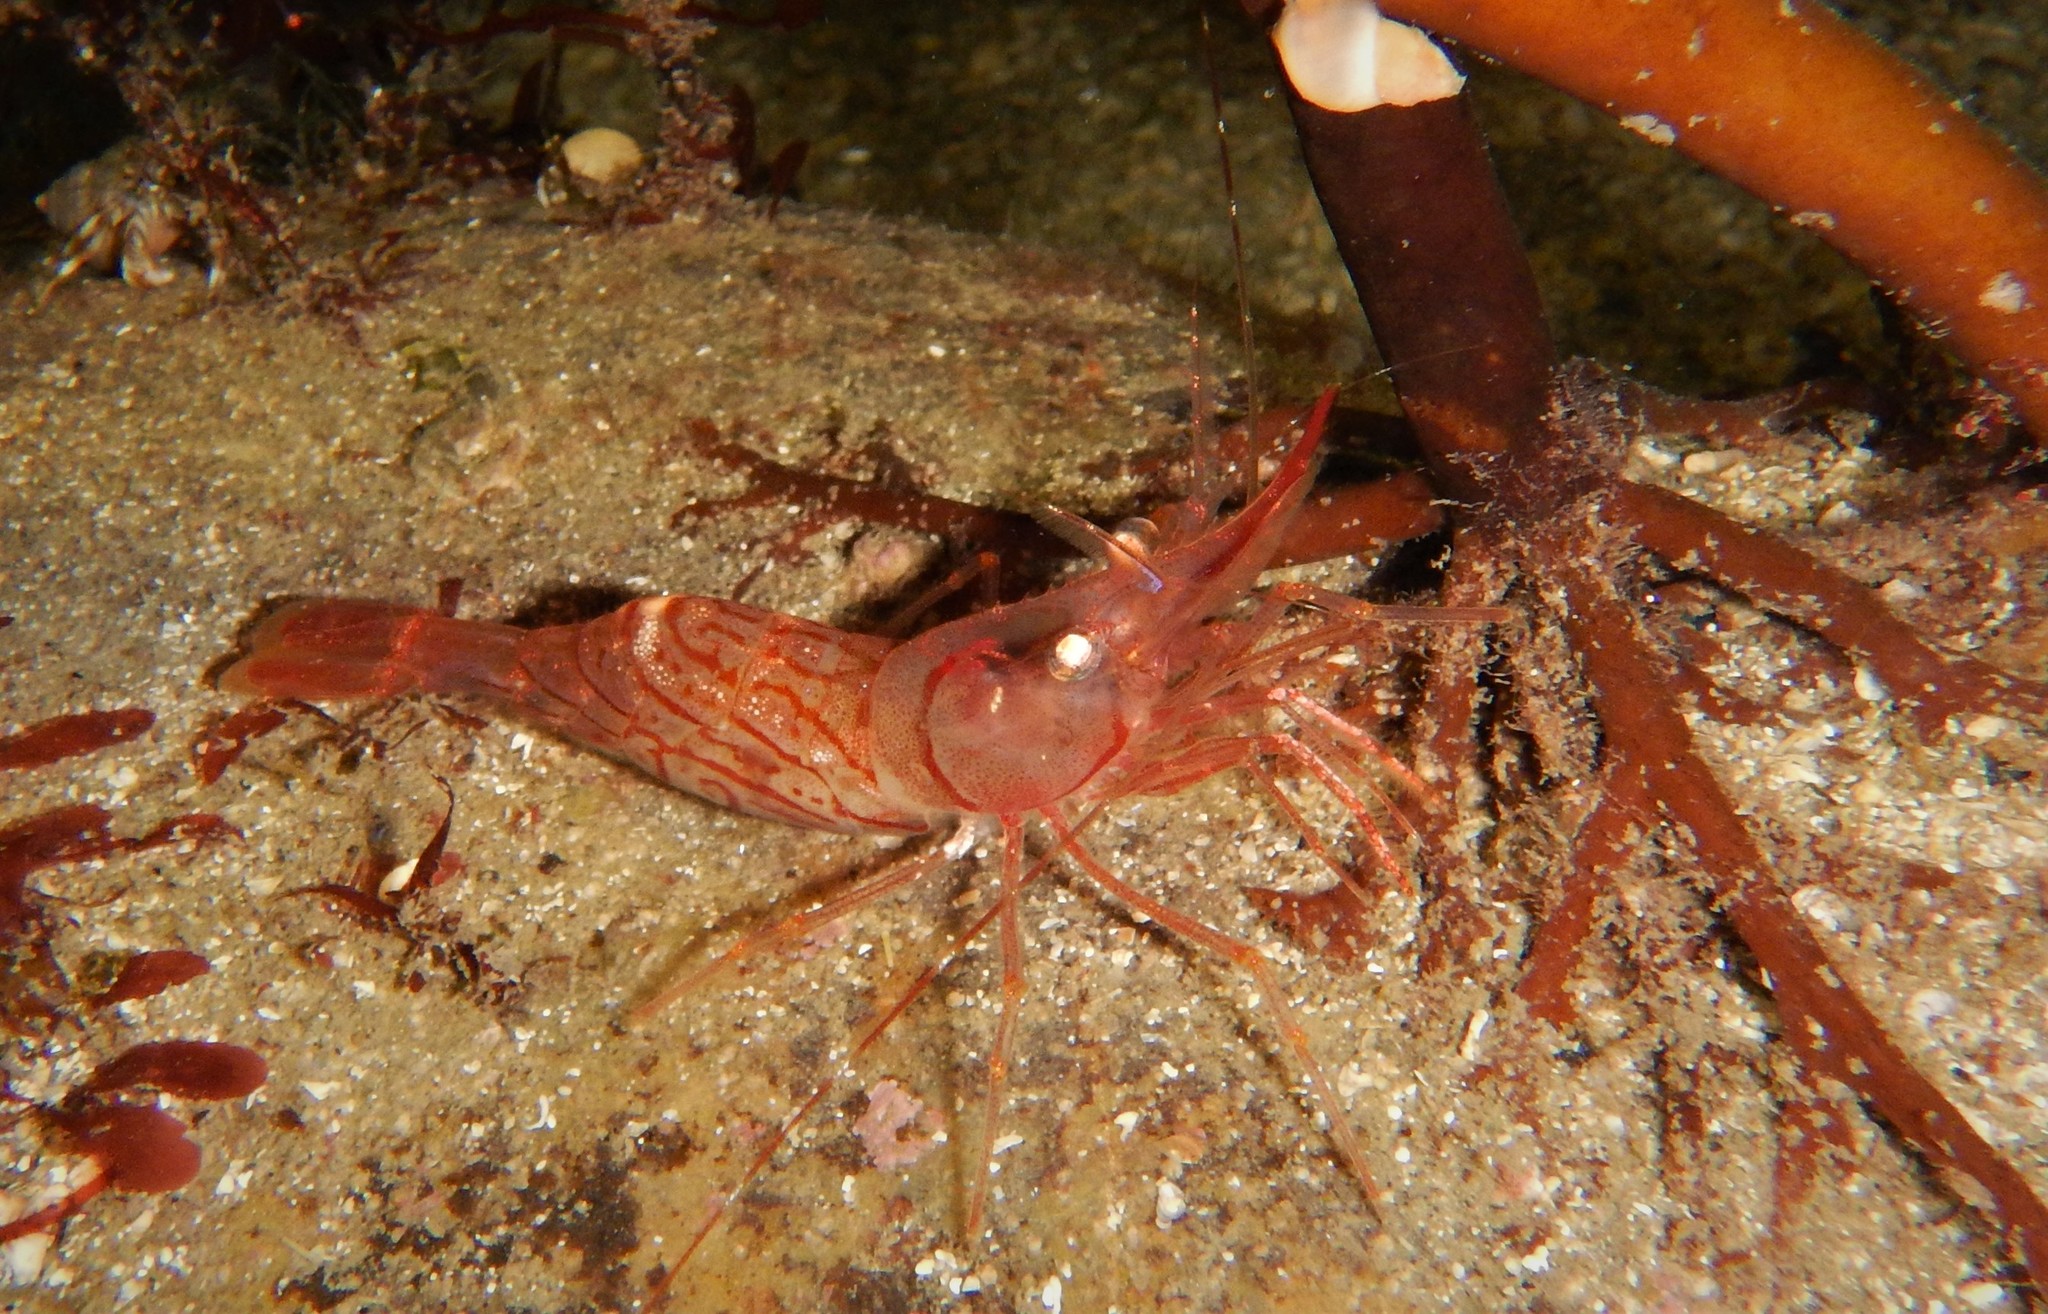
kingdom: Animalia
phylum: Arthropoda
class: Malacostraca
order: Decapoda
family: Pandalidae
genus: Pandalus
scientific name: Pandalus montagui
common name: Pink shrimp
